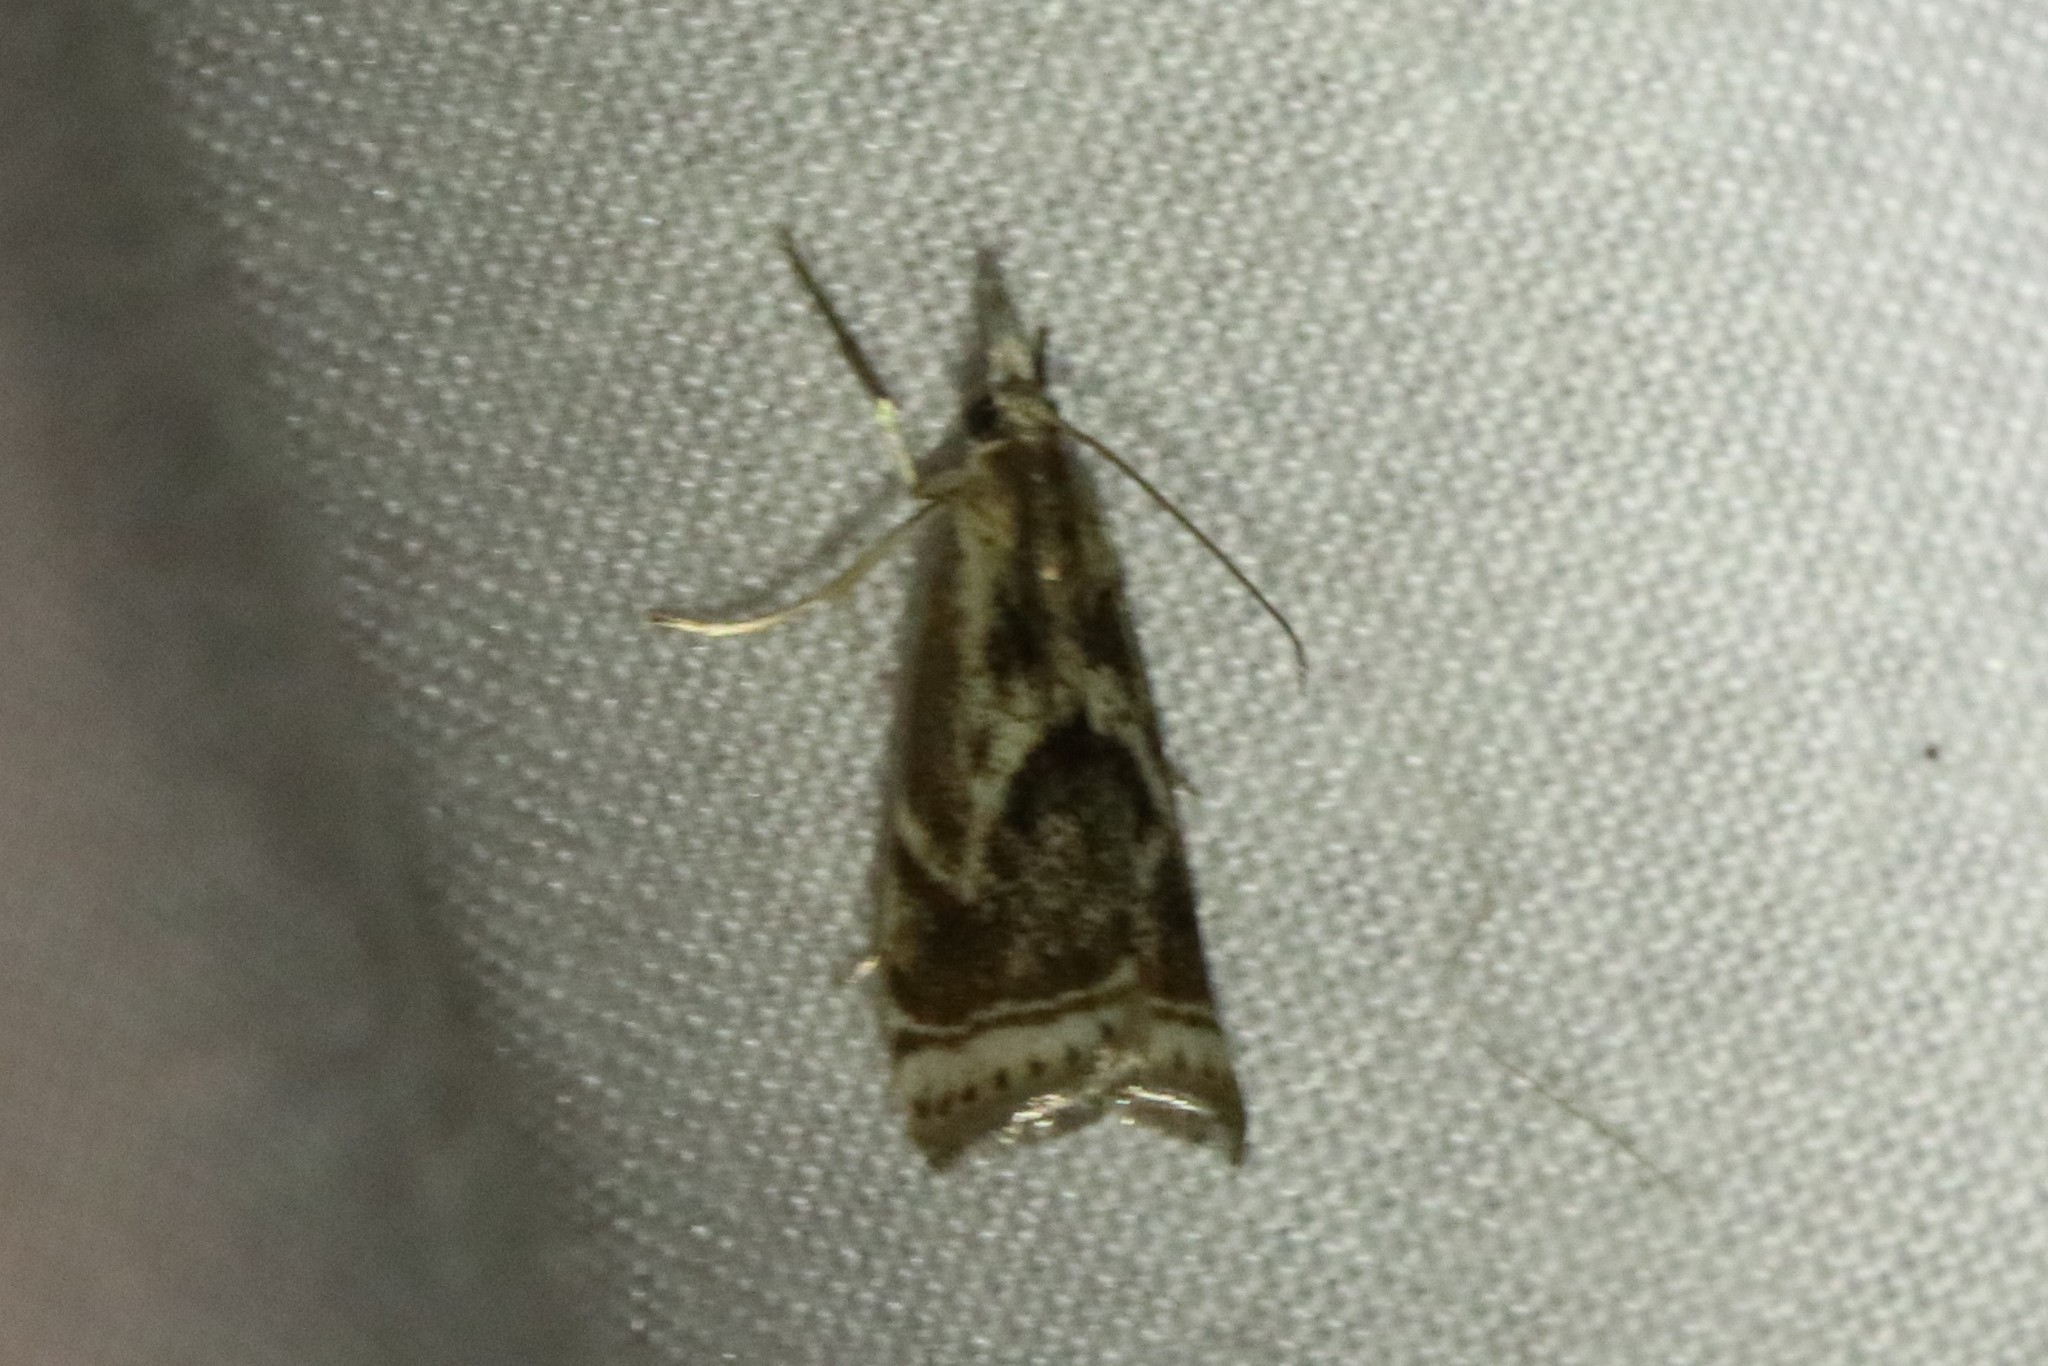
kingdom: Animalia
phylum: Arthropoda
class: Insecta
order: Lepidoptera
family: Crambidae
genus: Microcrambus
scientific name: Microcrambus elegans
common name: Elegant grass-veneer
